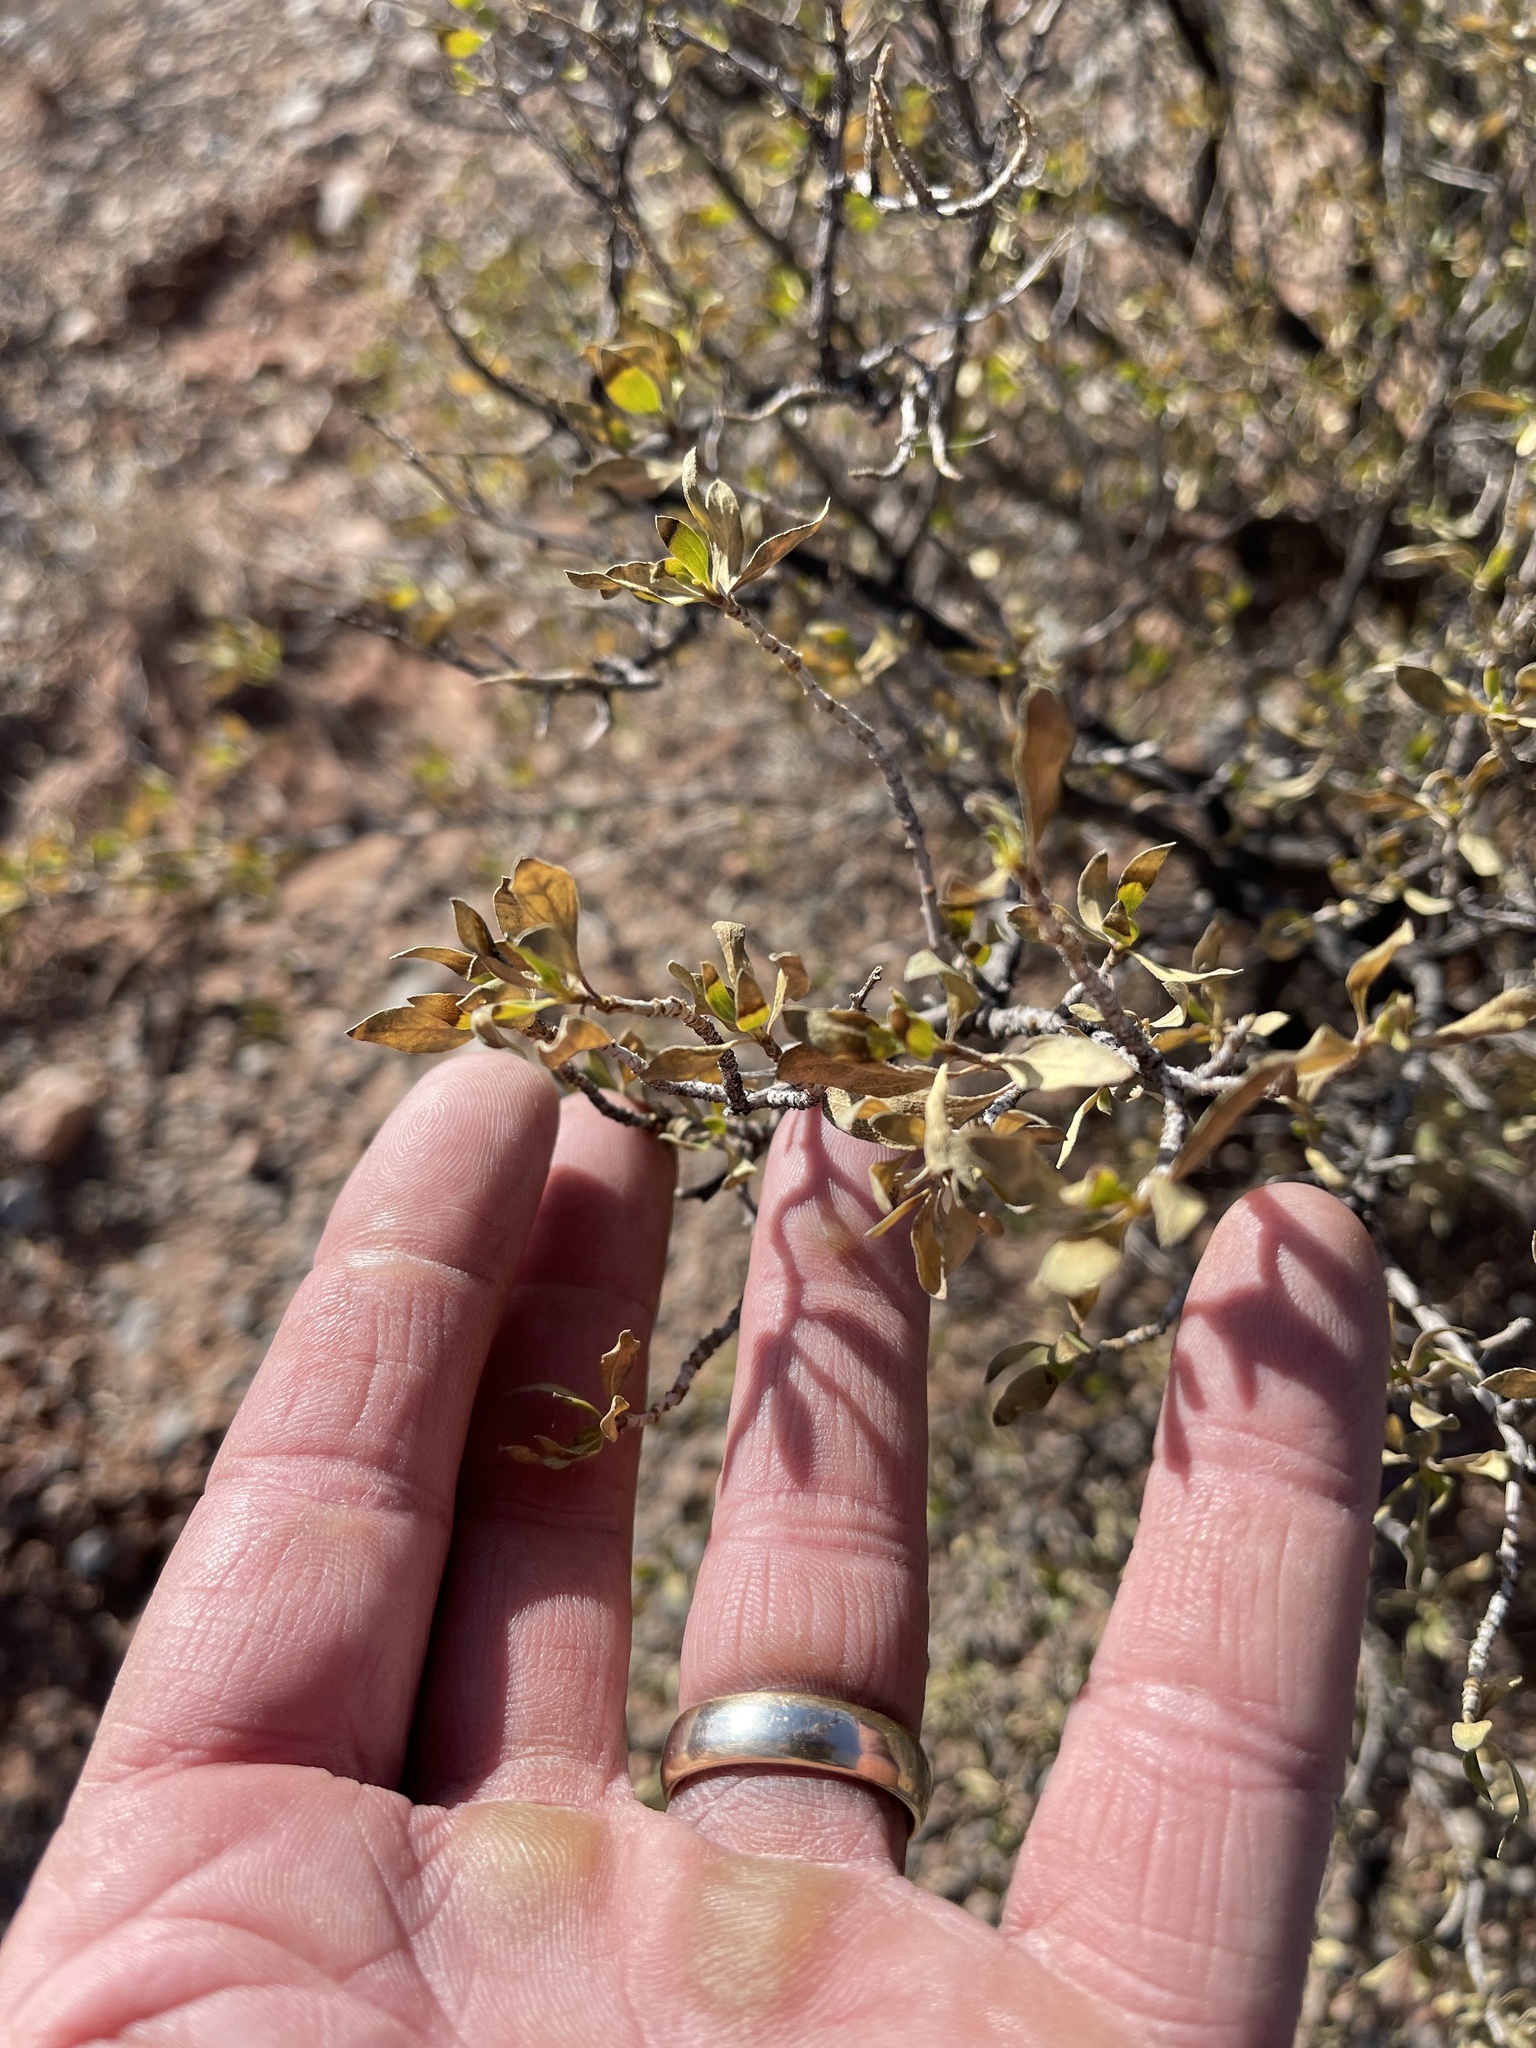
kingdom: Plantae
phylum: Tracheophyta
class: Magnoliopsida
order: Asterales
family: Asteraceae
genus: Flourensia
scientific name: Flourensia cernua
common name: Varnishbush
